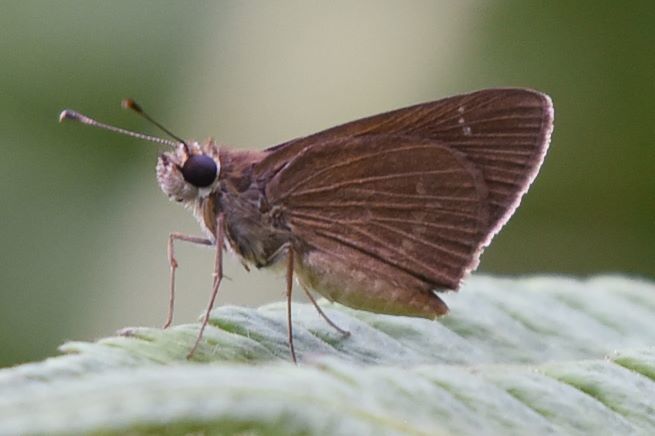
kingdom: Animalia
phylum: Arthropoda
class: Insecta
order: Lepidoptera
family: Hesperiidae
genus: Cymaenes
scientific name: Cymaenes tripunctus
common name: Dingy dotted skipper
